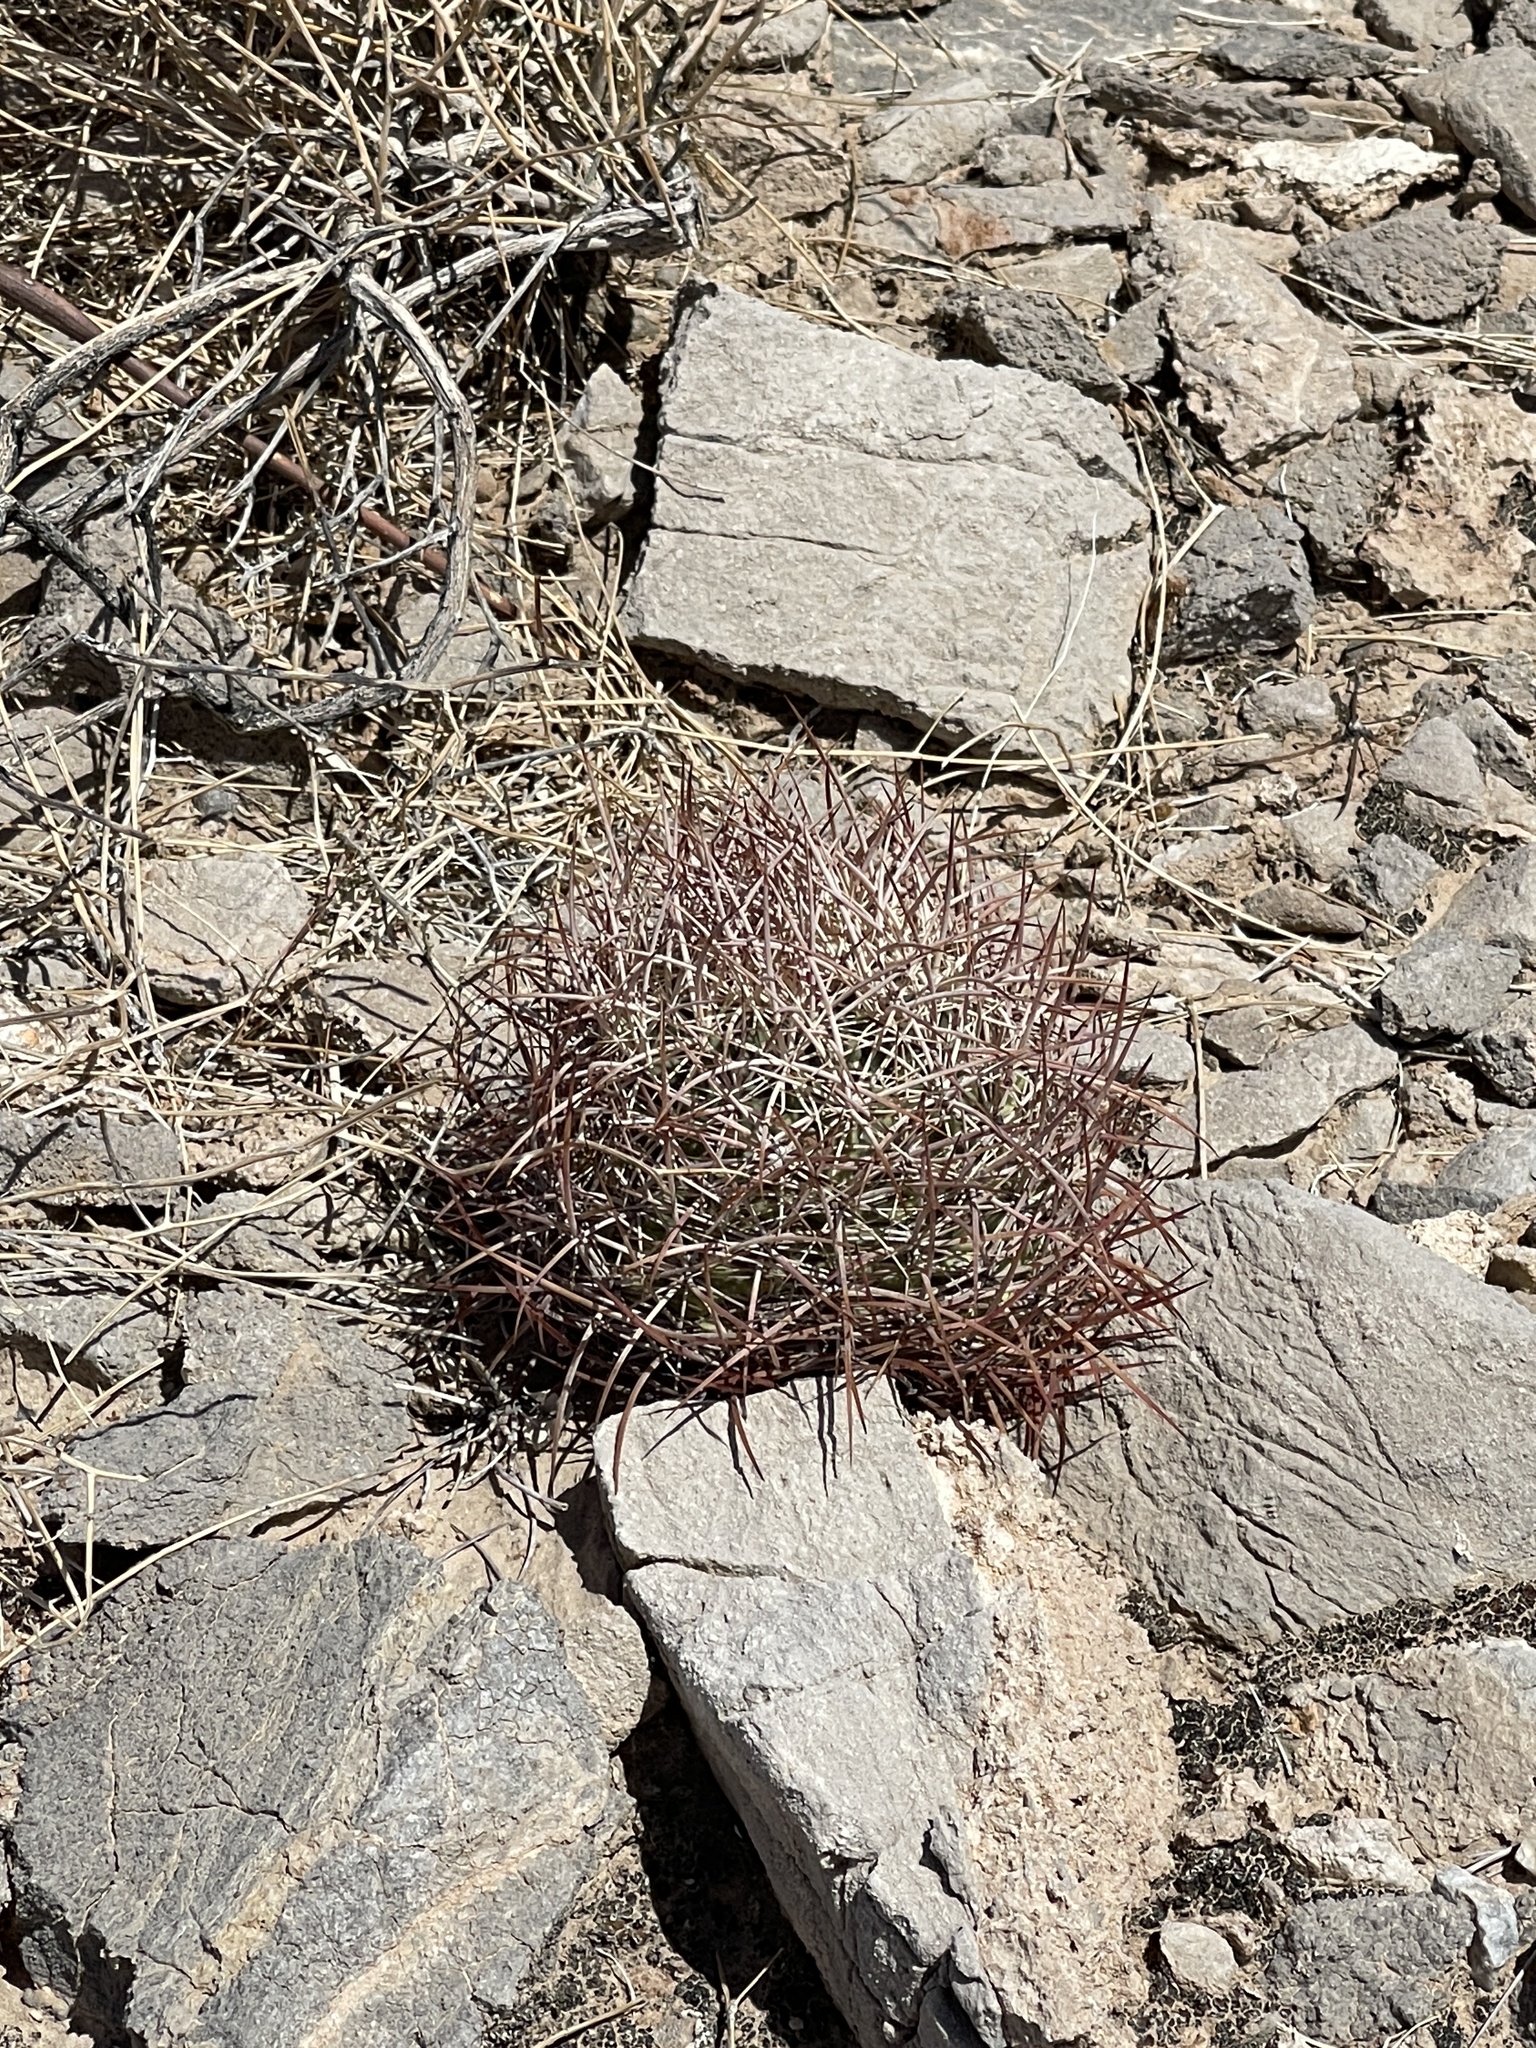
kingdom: Plantae
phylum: Tracheophyta
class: Magnoliopsida
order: Caryophyllales
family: Cactaceae
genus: Sclerocactus
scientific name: Sclerocactus johnsonii
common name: Eight-spine fishhook cactus
